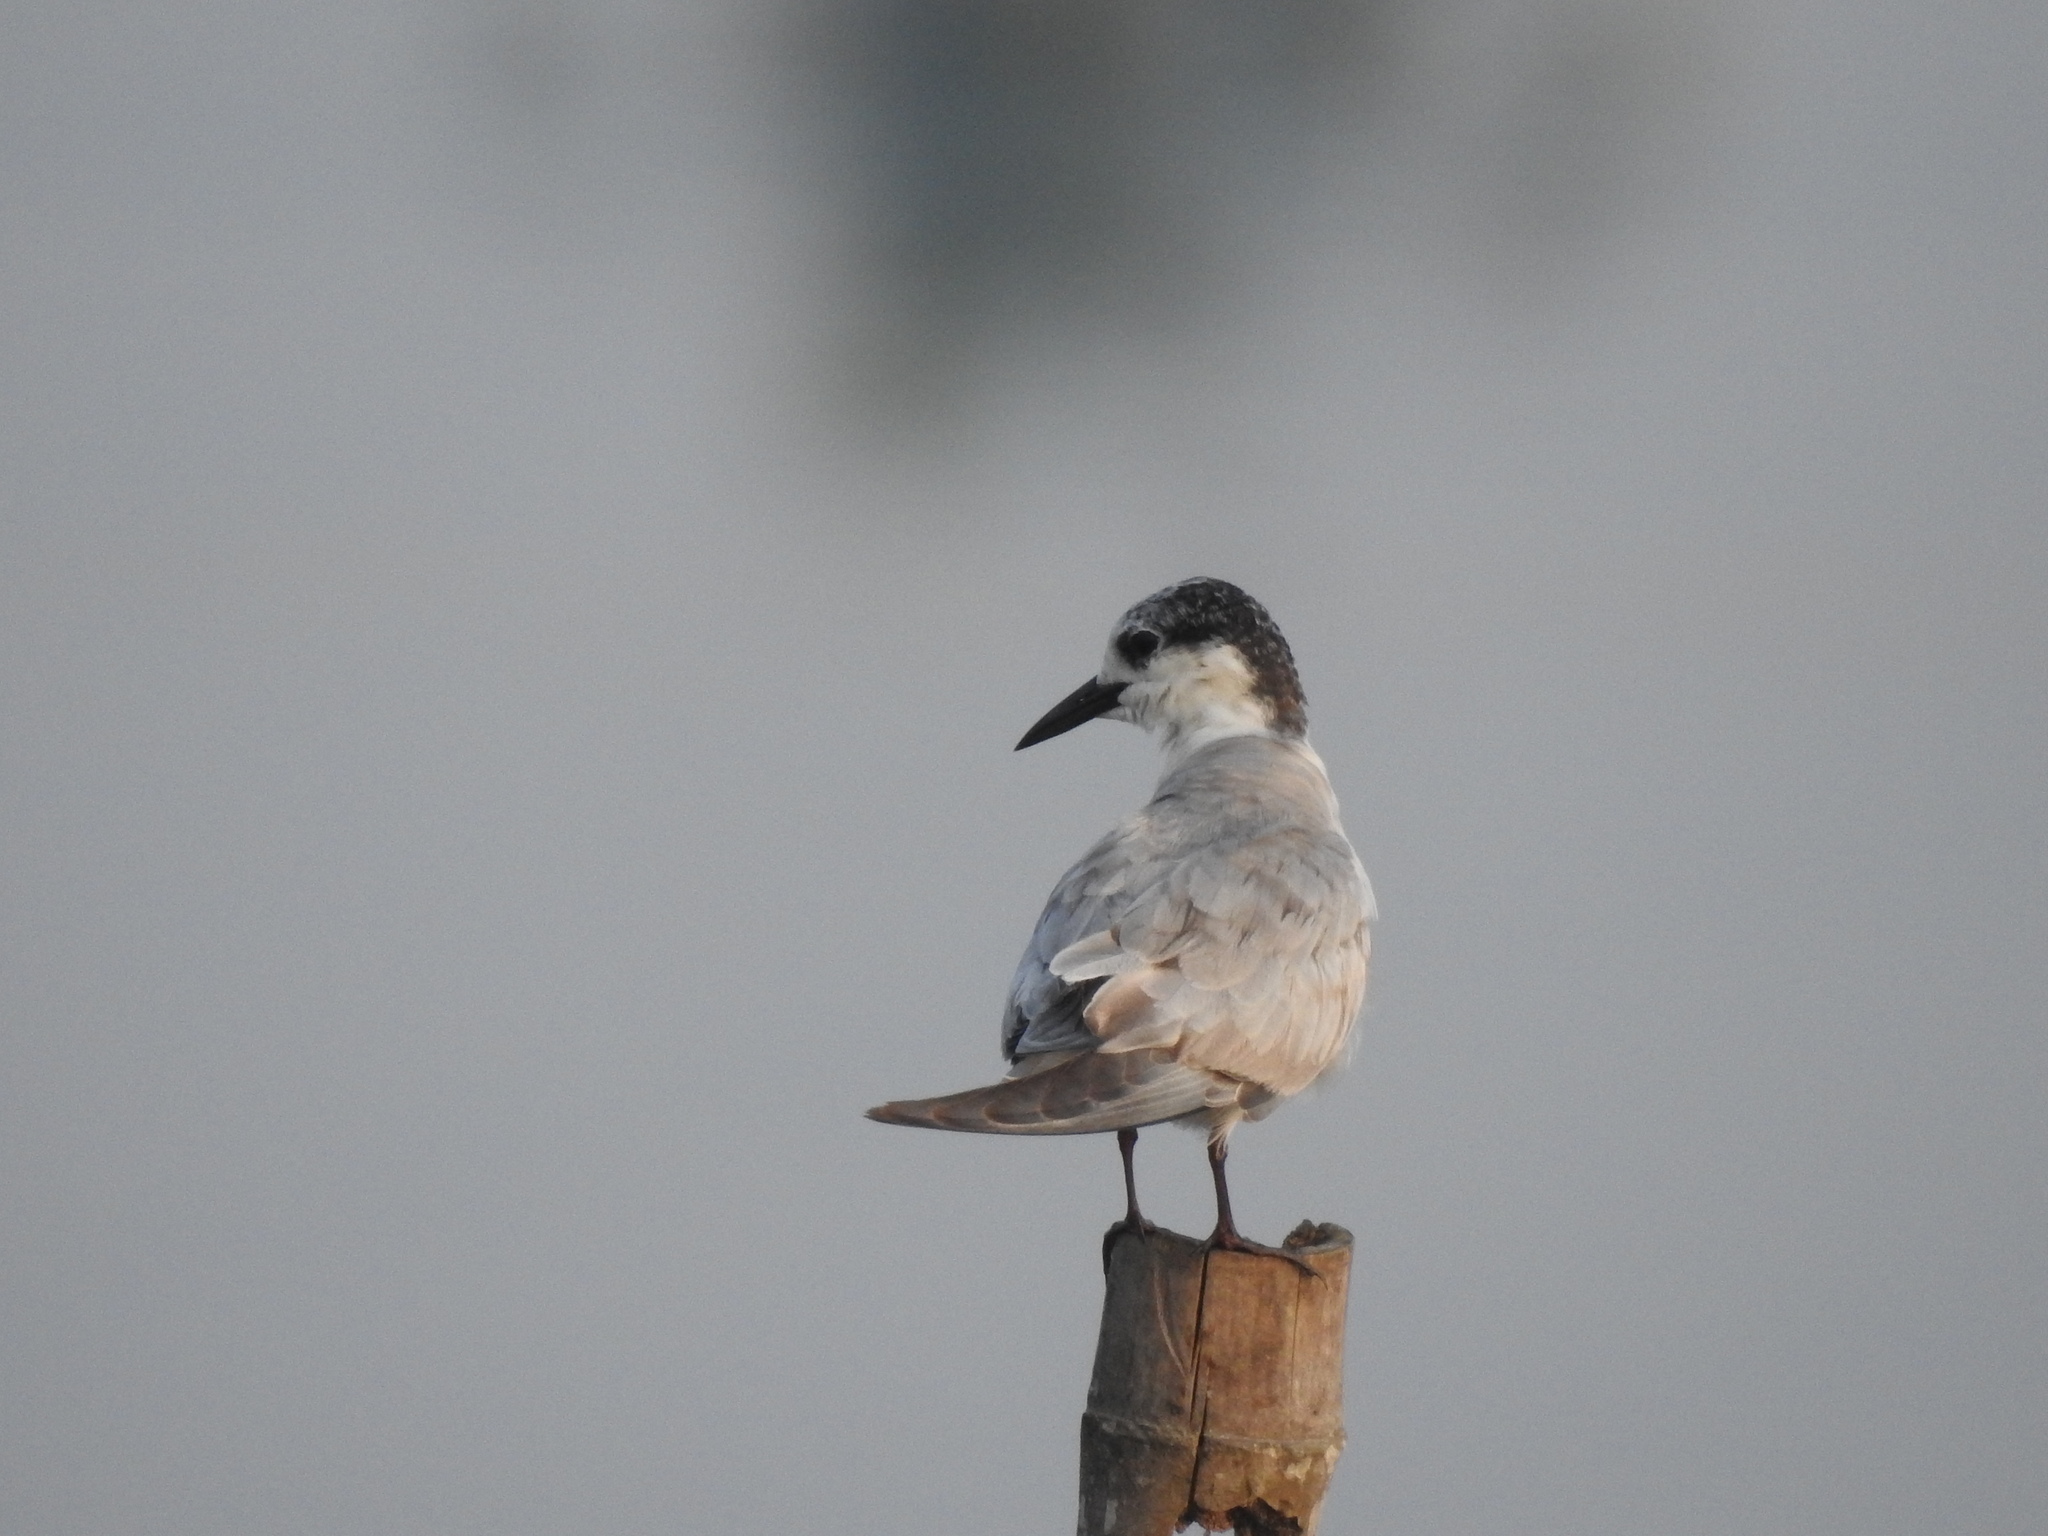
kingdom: Animalia
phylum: Chordata
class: Aves
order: Charadriiformes
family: Laridae
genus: Chlidonias
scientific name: Chlidonias hybrida
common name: Whiskered tern
